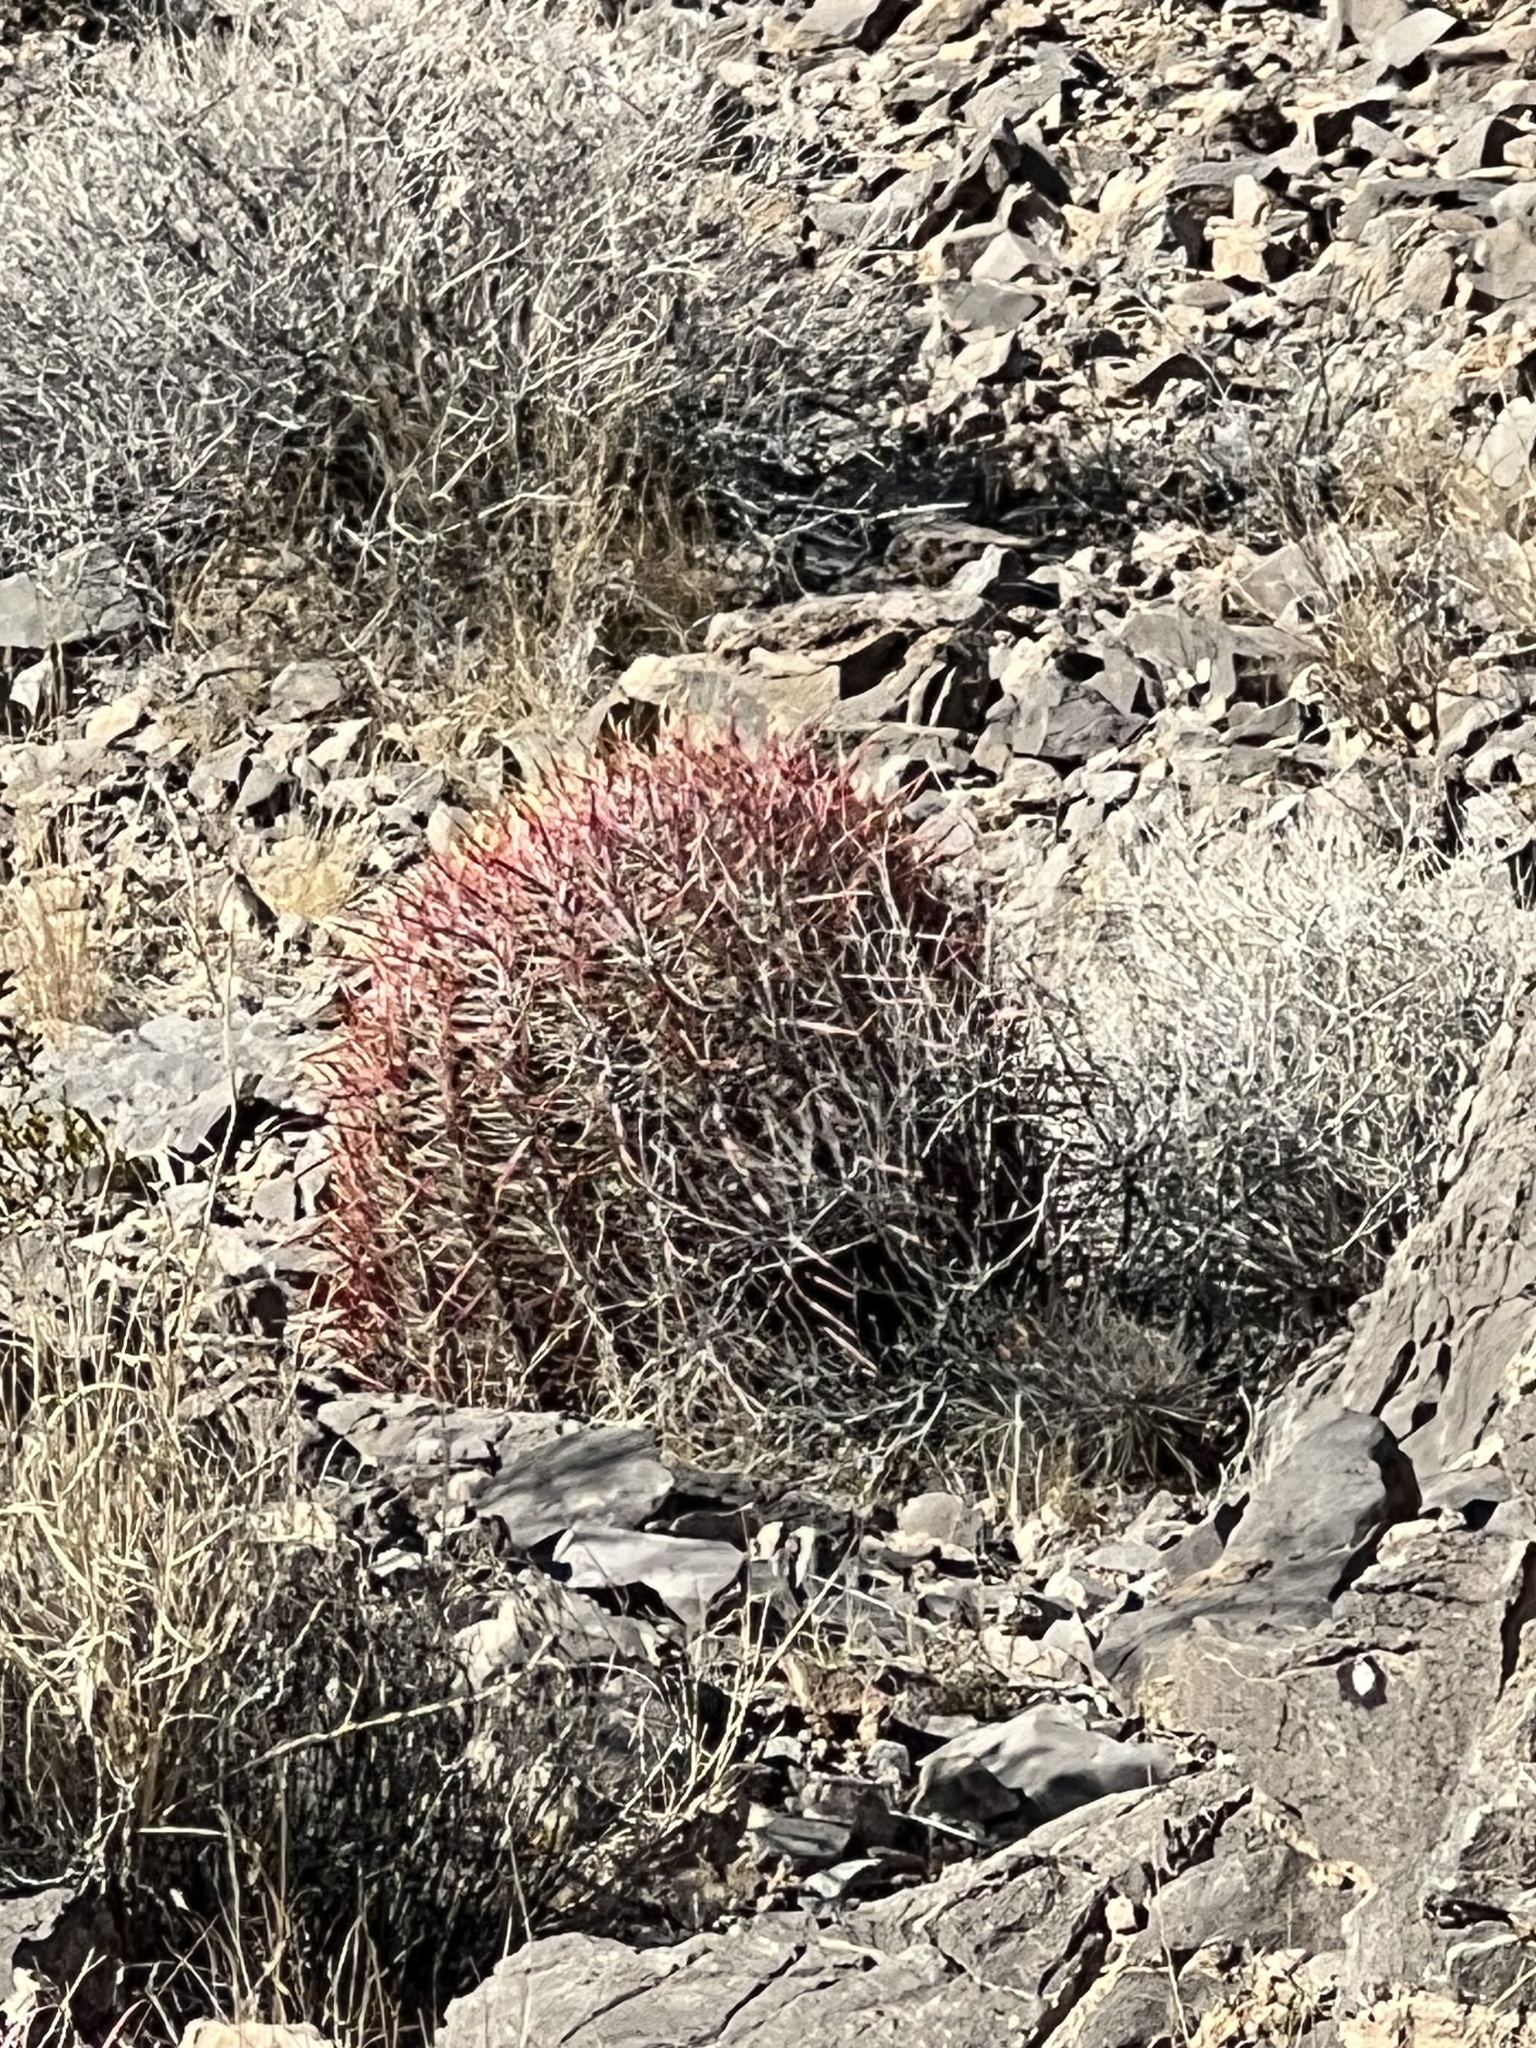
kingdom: Plantae
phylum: Tracheophyta
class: Magnoliopsida
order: Caryophyllales
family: Cactaceae
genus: Ferocactus
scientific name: Ferocactus cylindraceus
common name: California barrel cactus
